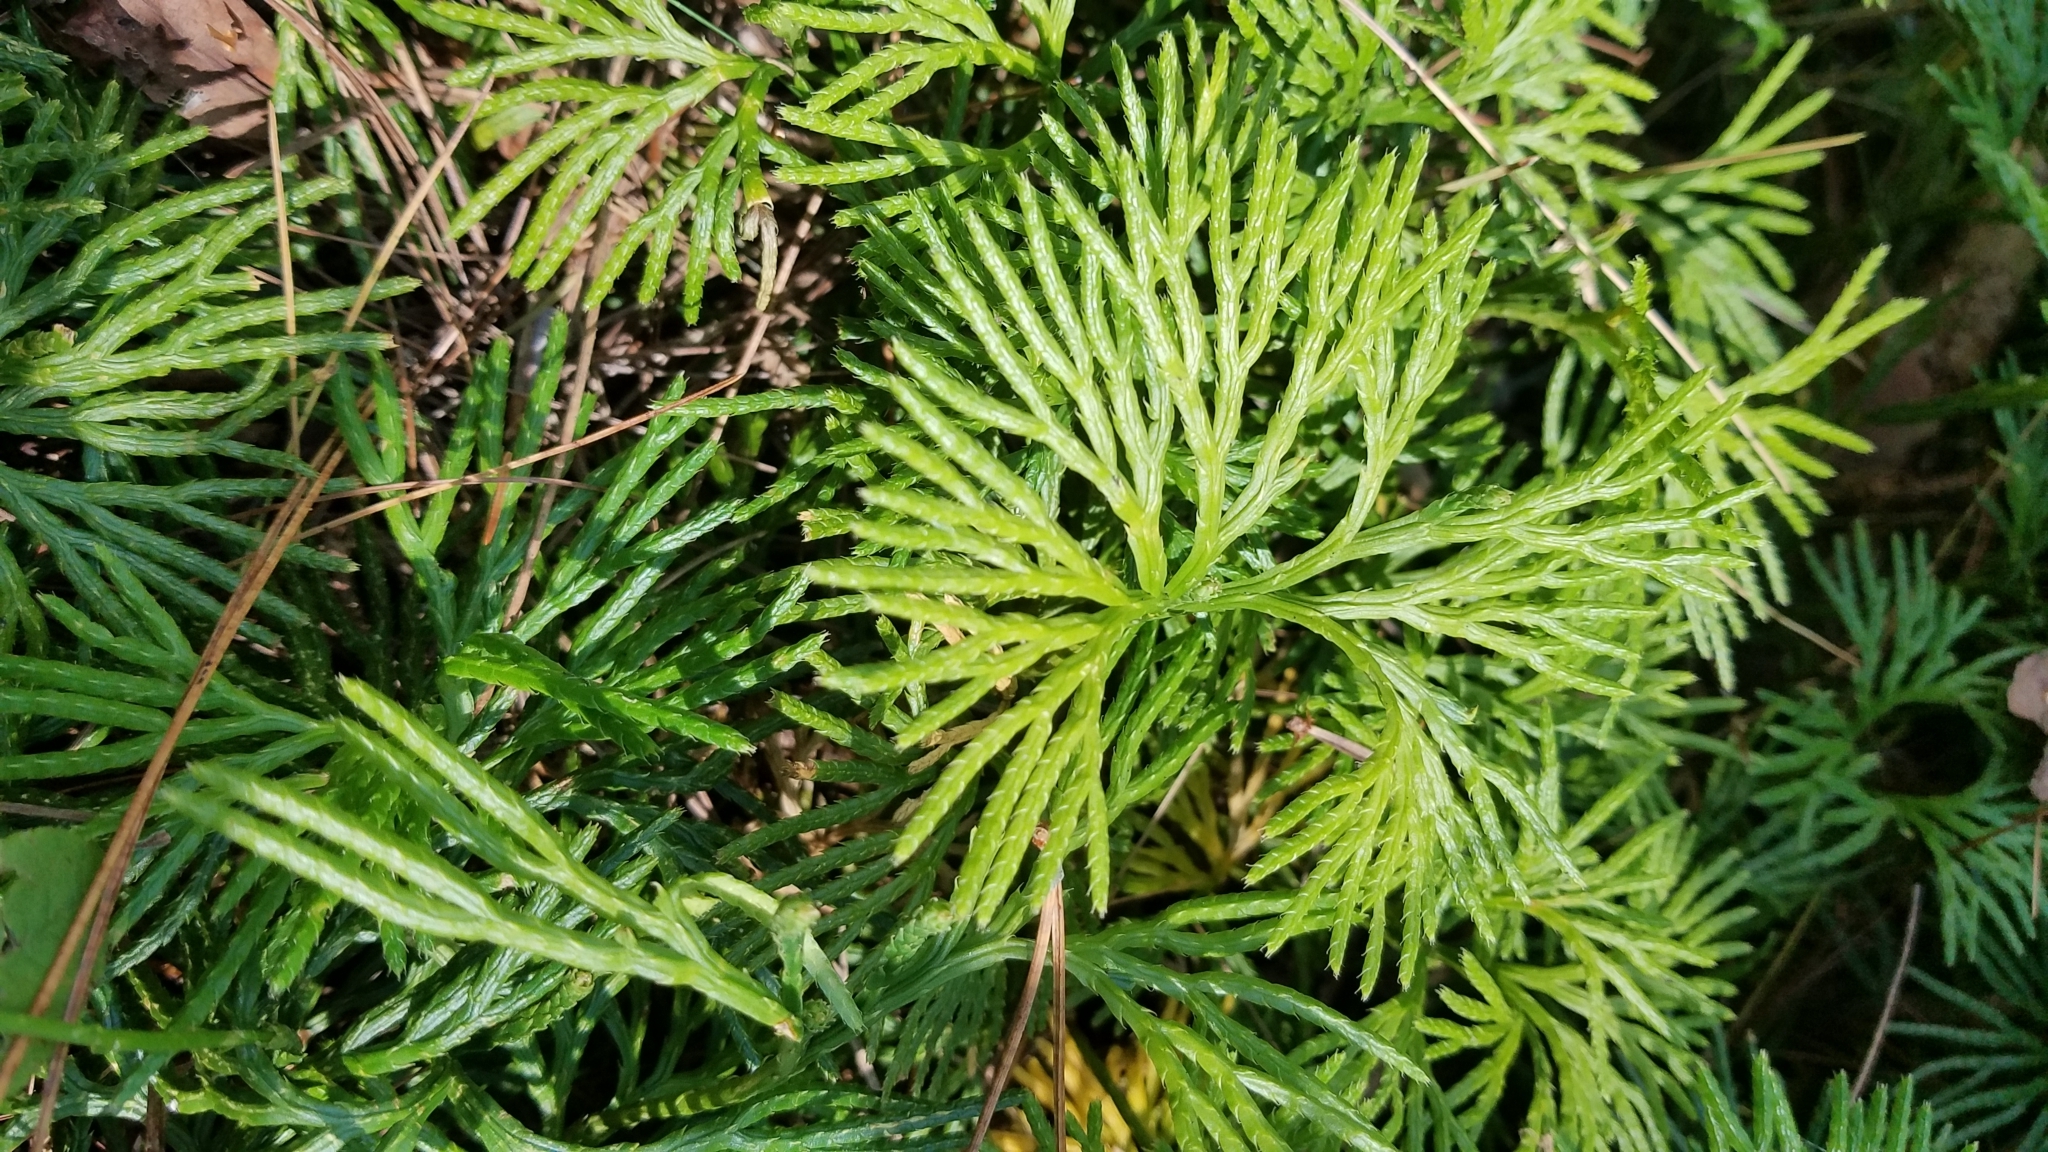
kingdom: Plantae
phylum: Tracheophyta
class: Lycopodiopsida
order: Lycopodiales
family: Lycopodiaceae
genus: Diphasiastrum
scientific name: Diphasiastrum digitatum
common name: Southern running-pine
